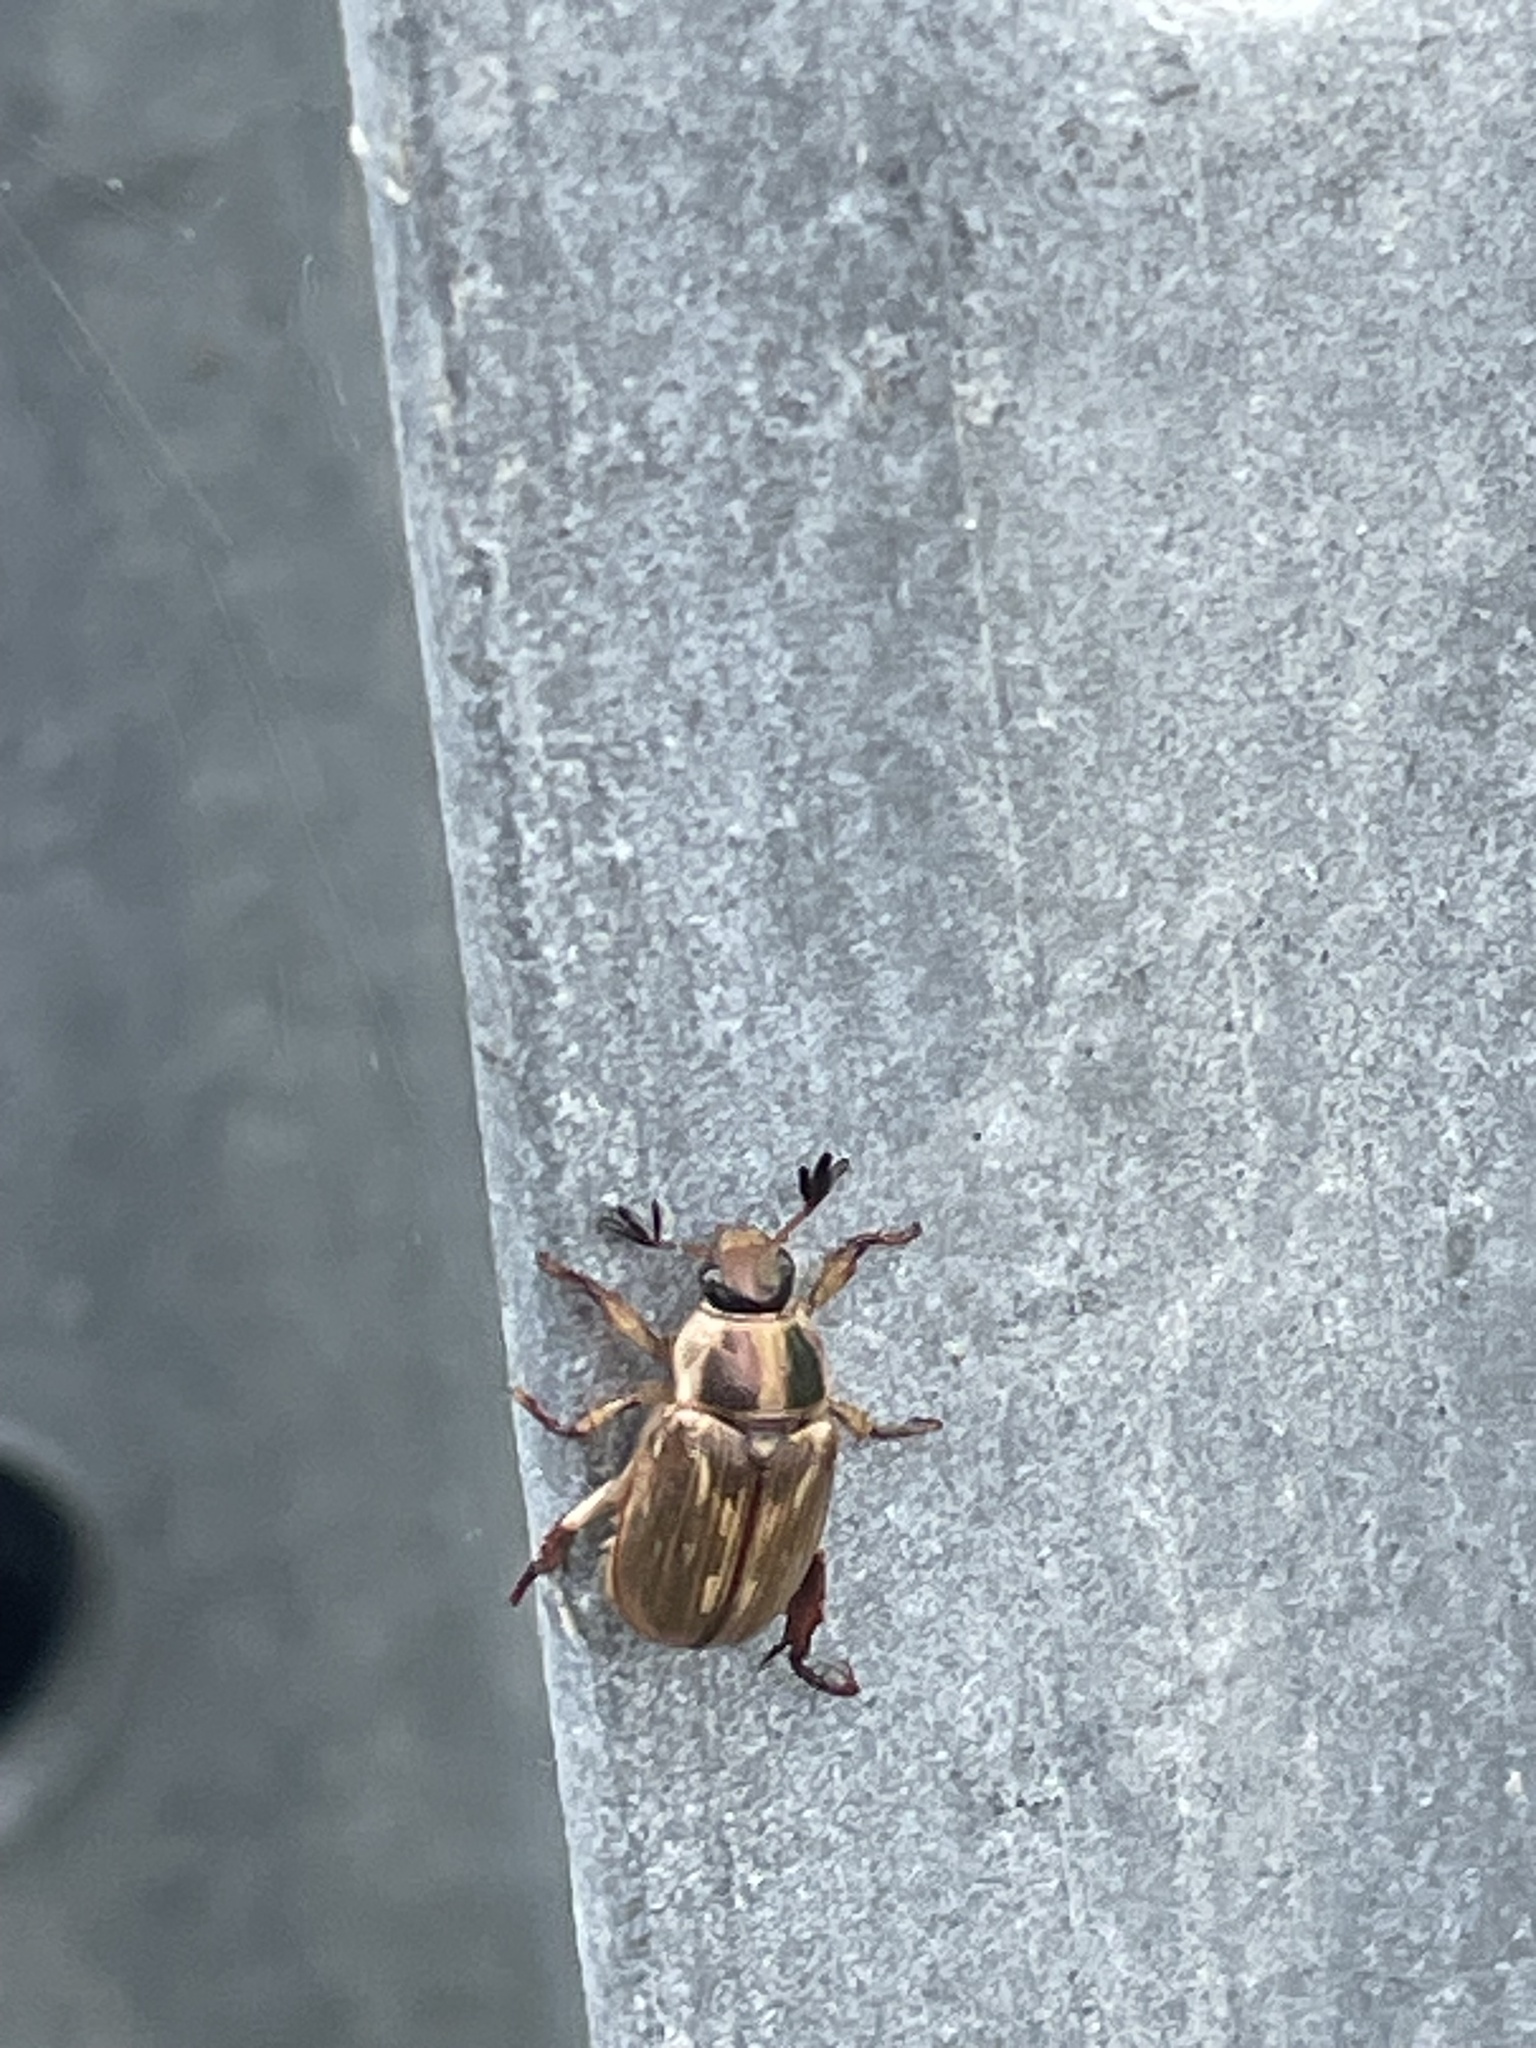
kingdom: Animalia
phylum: Arthropoda
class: Insecta
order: Coleoptera
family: Scarabaeidae
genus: Exomala
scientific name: Exomala orientalis
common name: Oriental beetle
